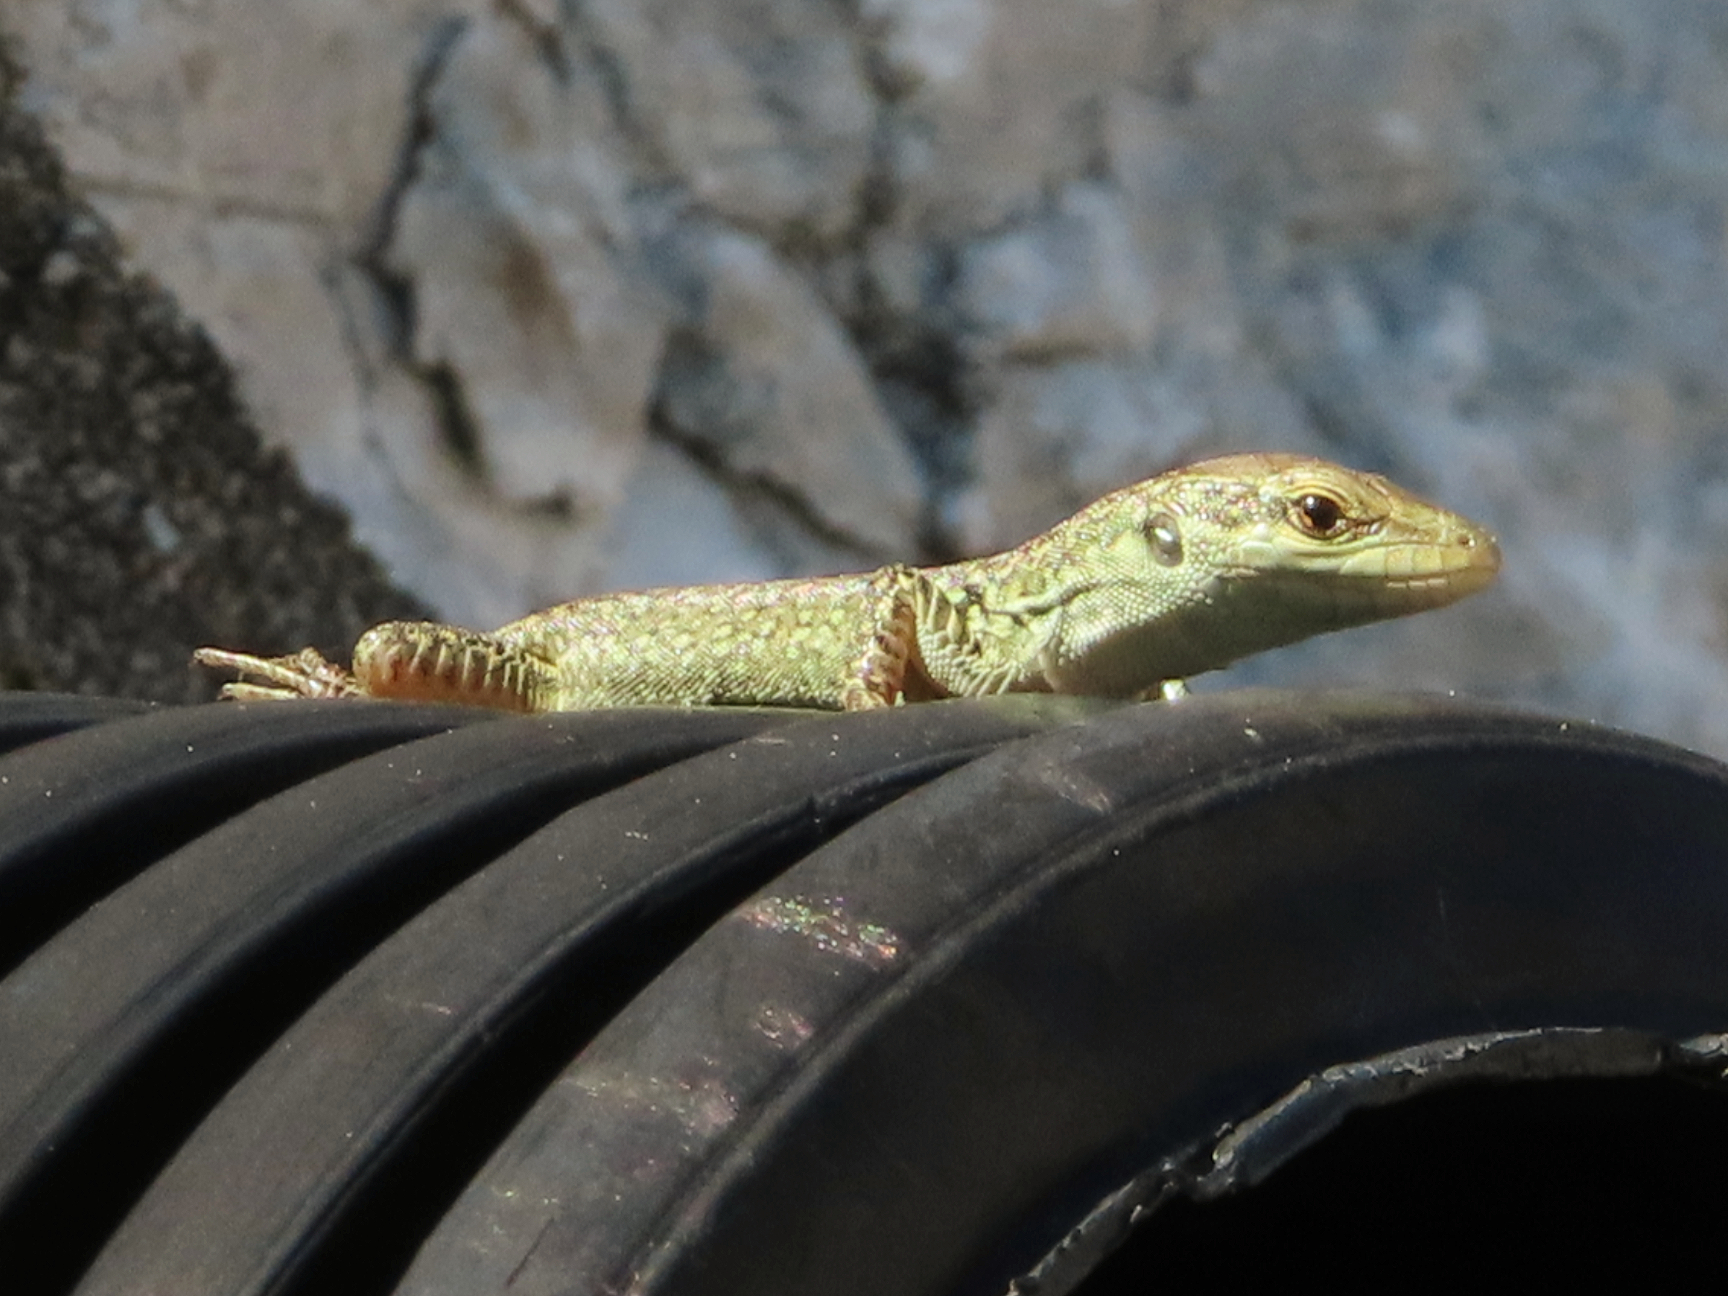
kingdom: Animalia
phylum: Chordata
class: Squamata
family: Lacertidae
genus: Podarcis
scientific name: Podarcis siculus
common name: Italian wall lizard
